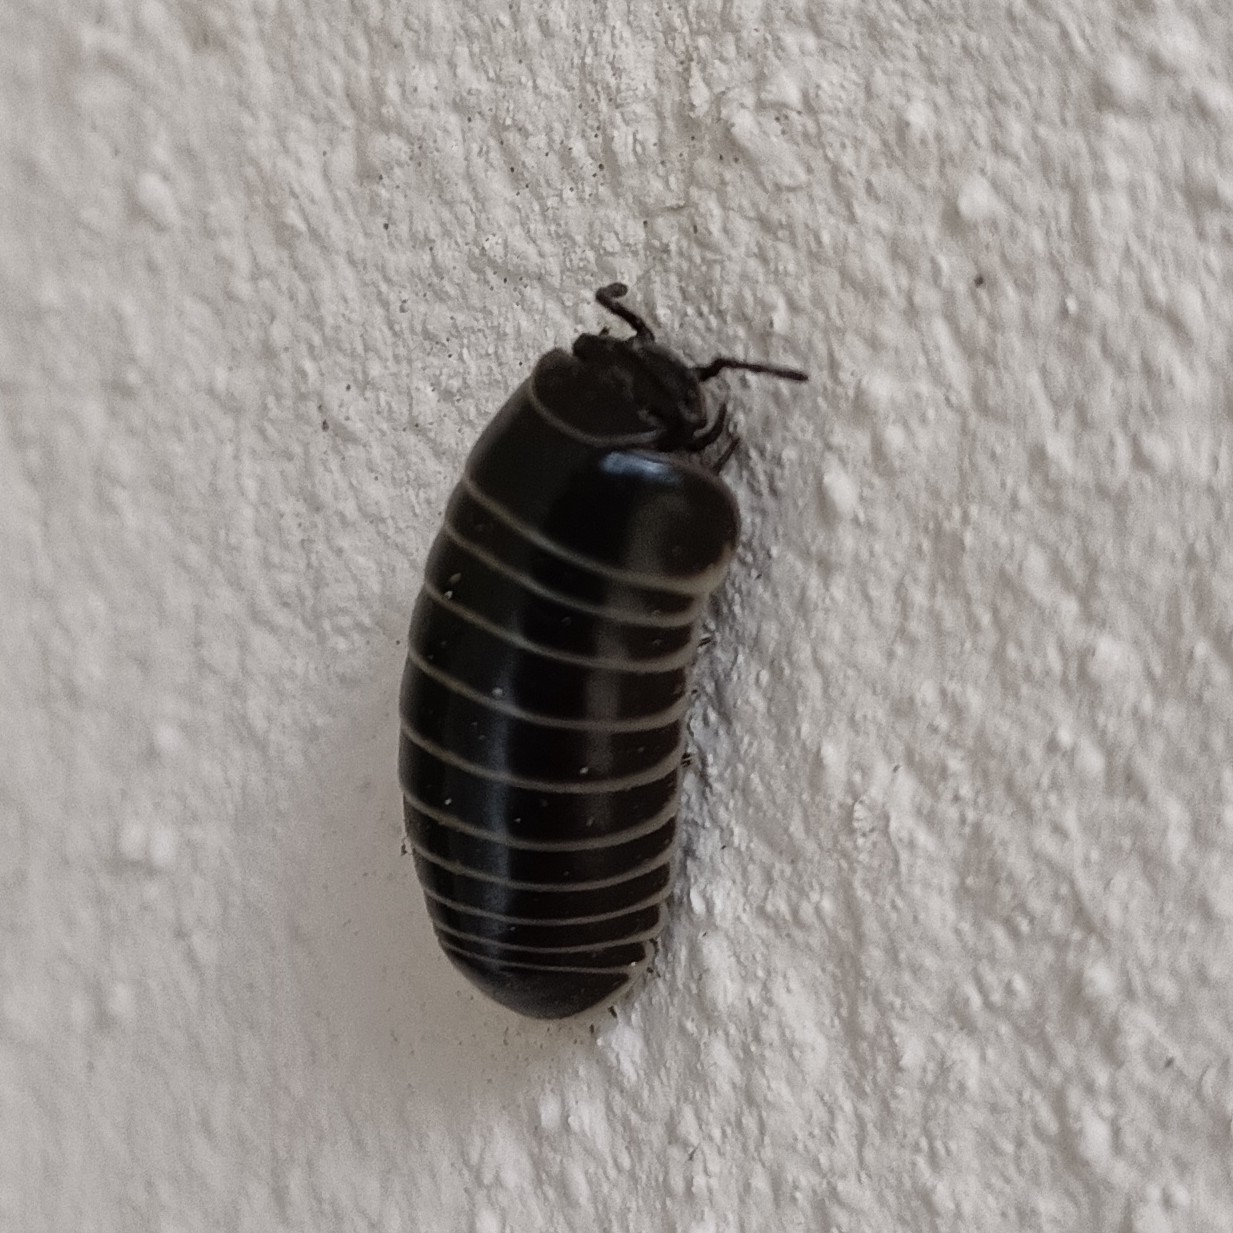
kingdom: Animalia
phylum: Arthropoda
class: Diplopoda
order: Glomerida
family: Glomeridae
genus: Glomeris
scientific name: Glomeris marginata
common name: Bordered pill millipede
